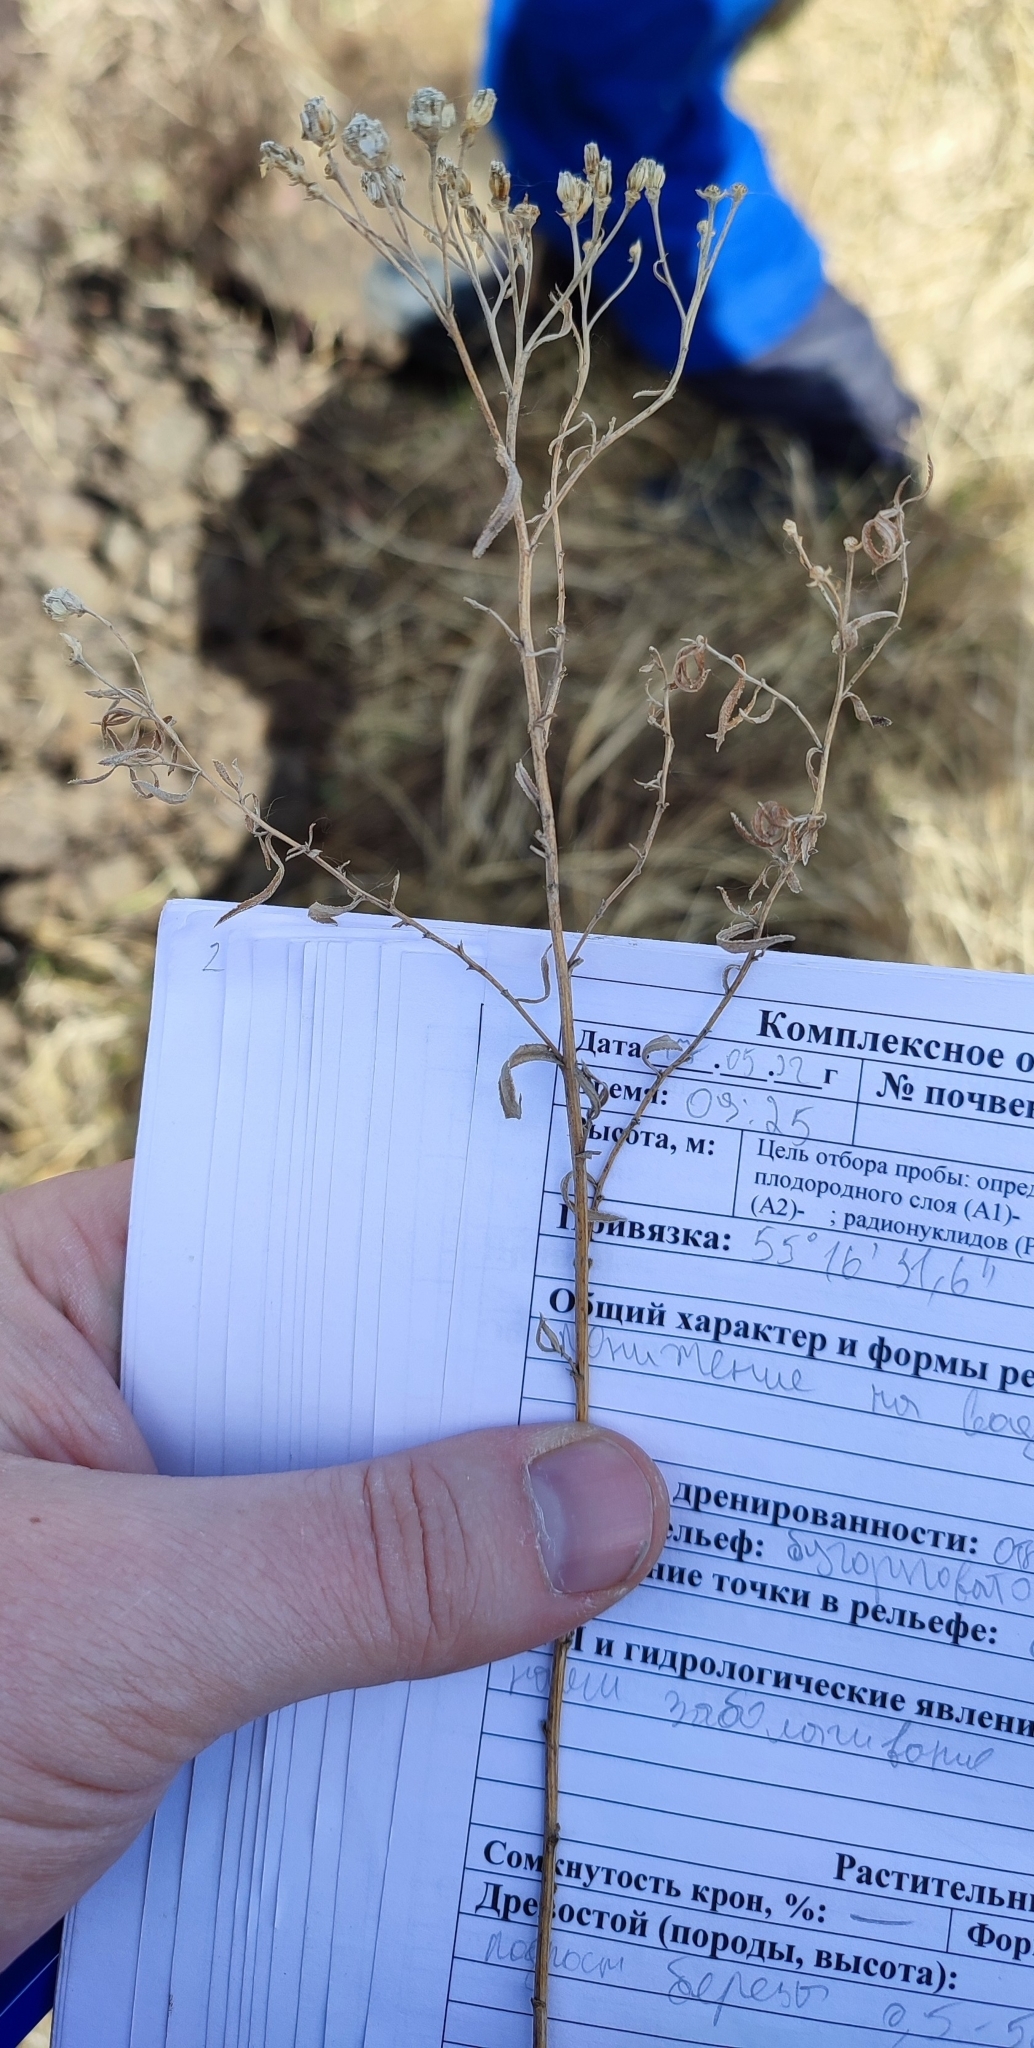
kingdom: Plantae
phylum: Tracheophyta
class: Magnoliopsida
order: Asterales
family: Asteraceae
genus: Achillea
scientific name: Achillea salicifolia
